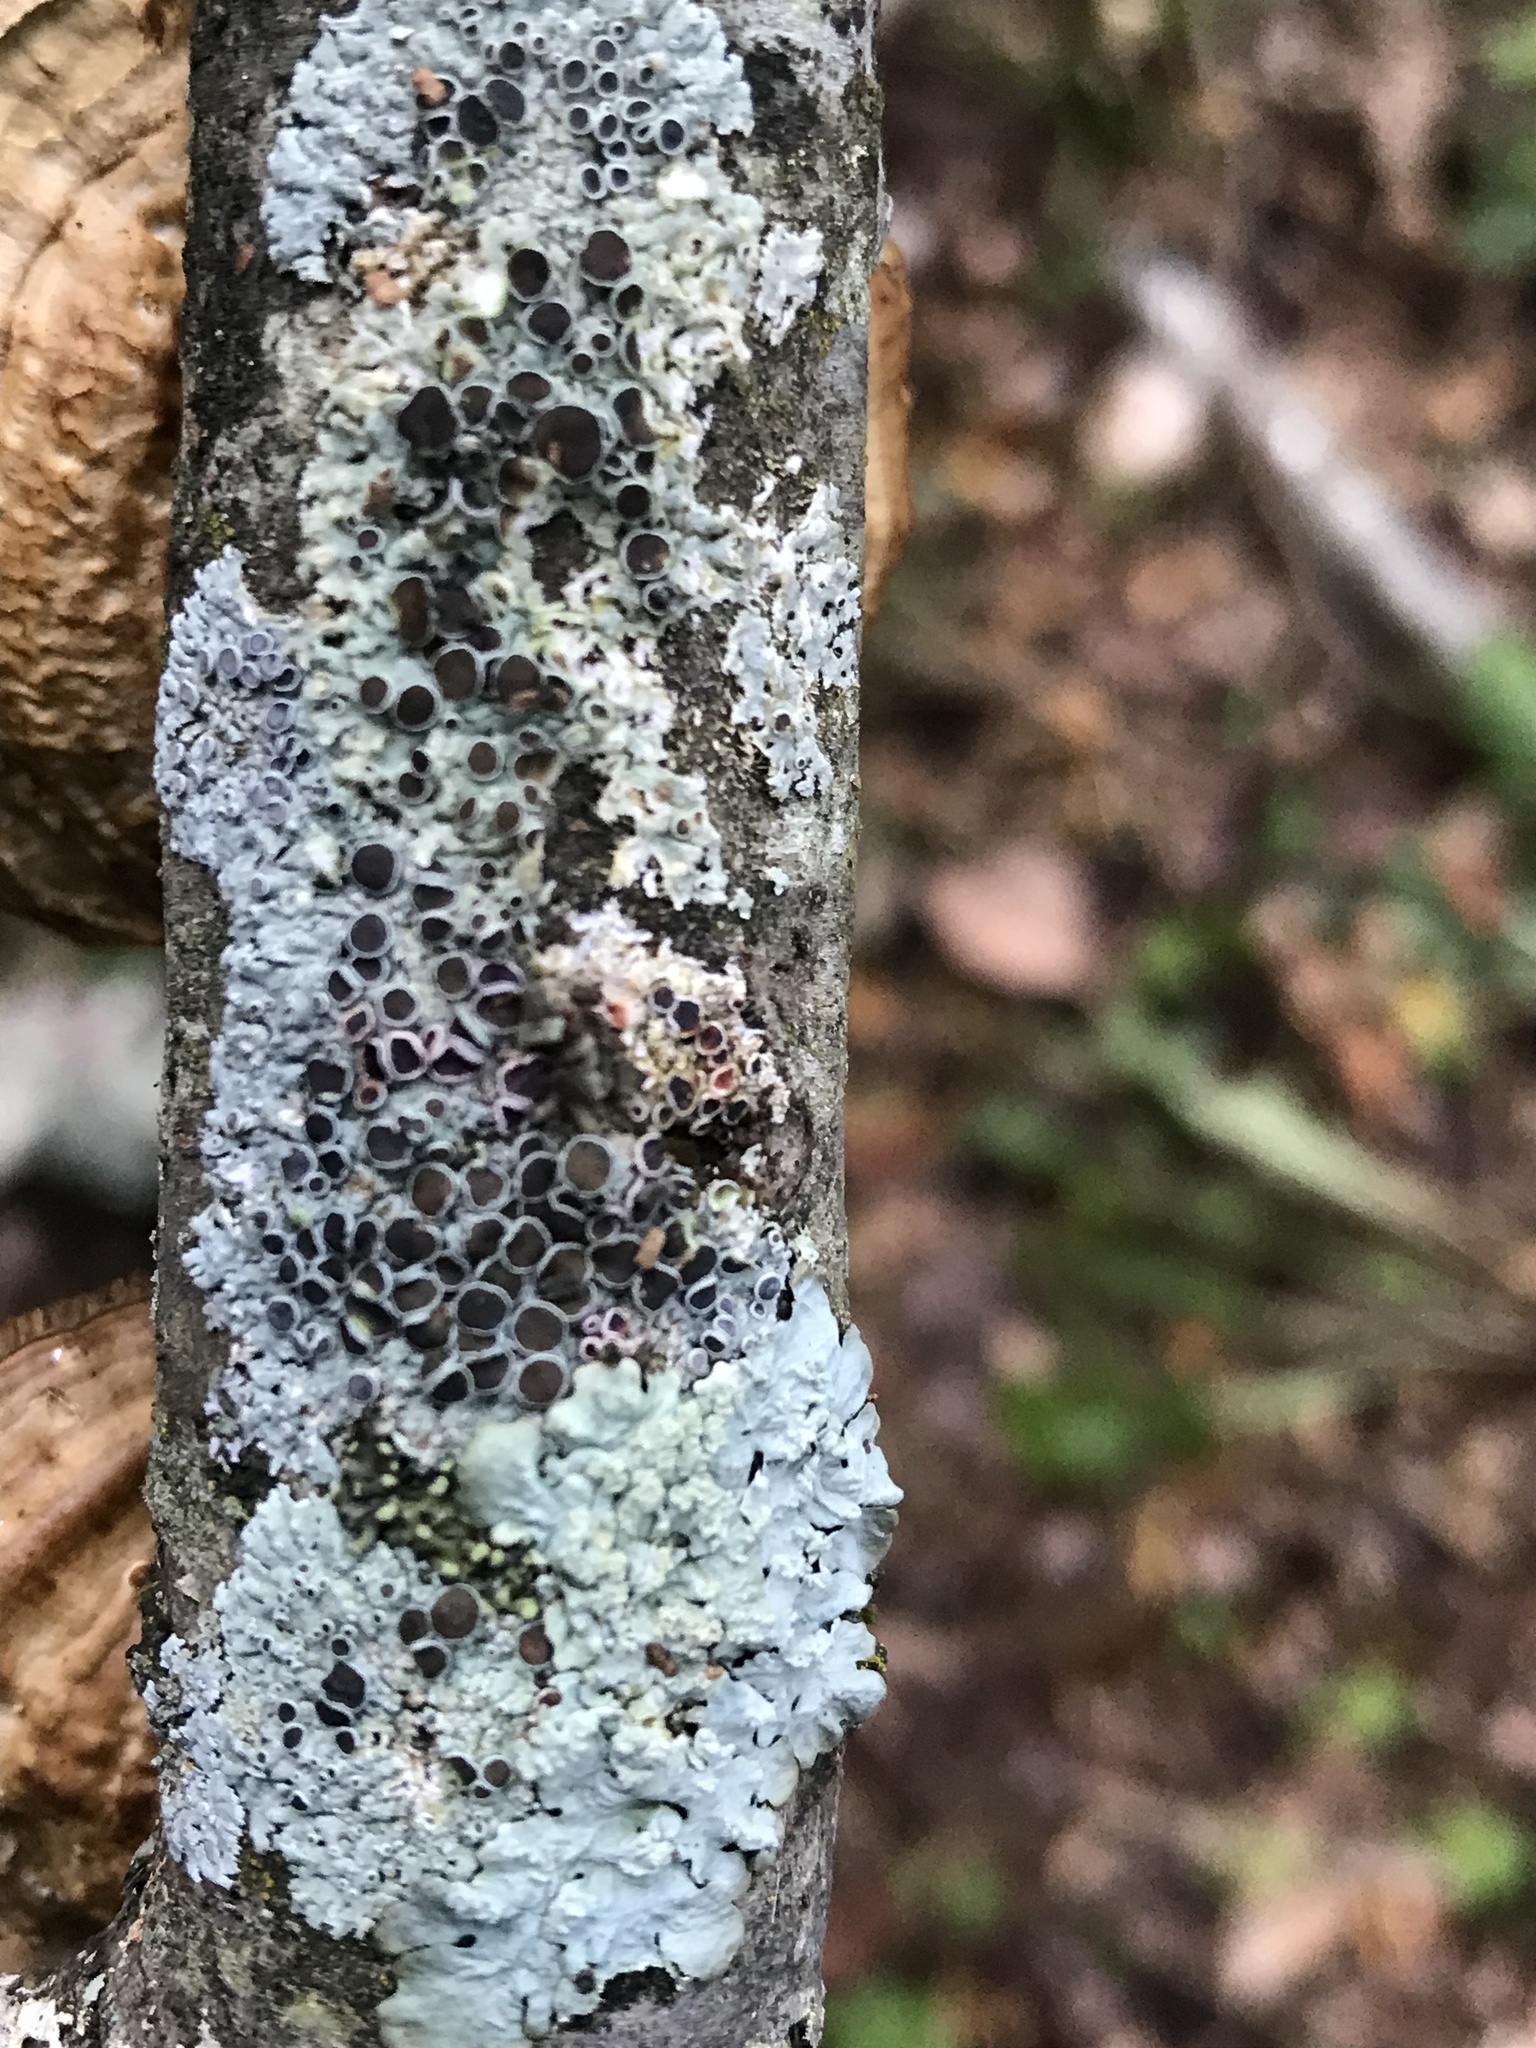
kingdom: Fungi
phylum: Ascomycota
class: Lecanoromycetes
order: Caliciales
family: Physciaceae
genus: Physcia
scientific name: Physcia millegrana
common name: Rosette lichen
